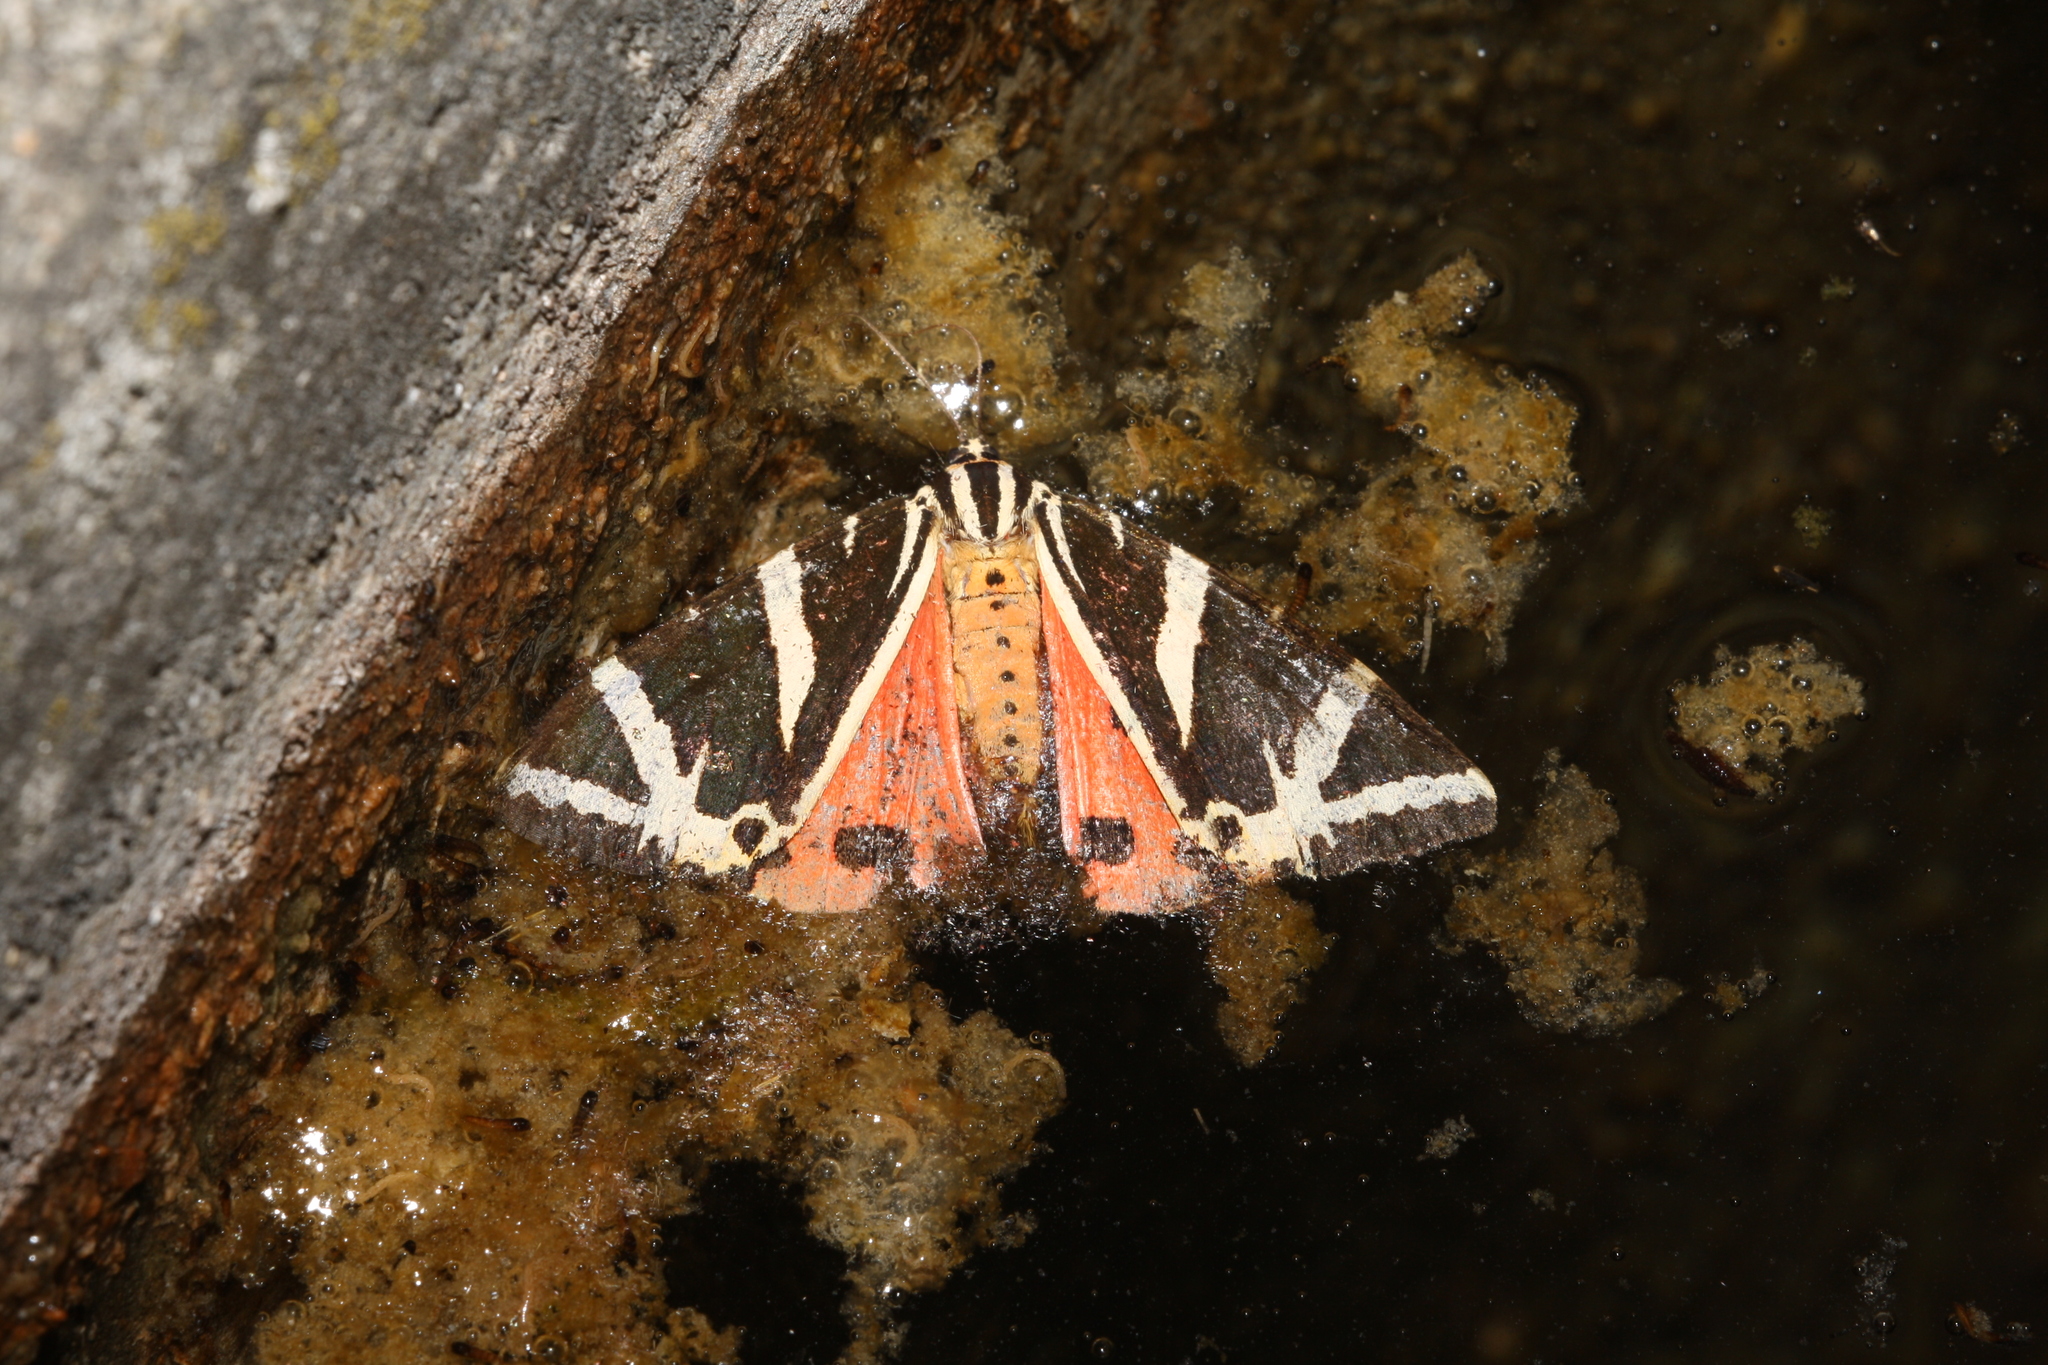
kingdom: Animalia
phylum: Arthropoda
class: Insecta
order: Lepidoptera
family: Erebidae
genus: Euplagia
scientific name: Euplagia quadripunctaria
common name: Jersey tiger
